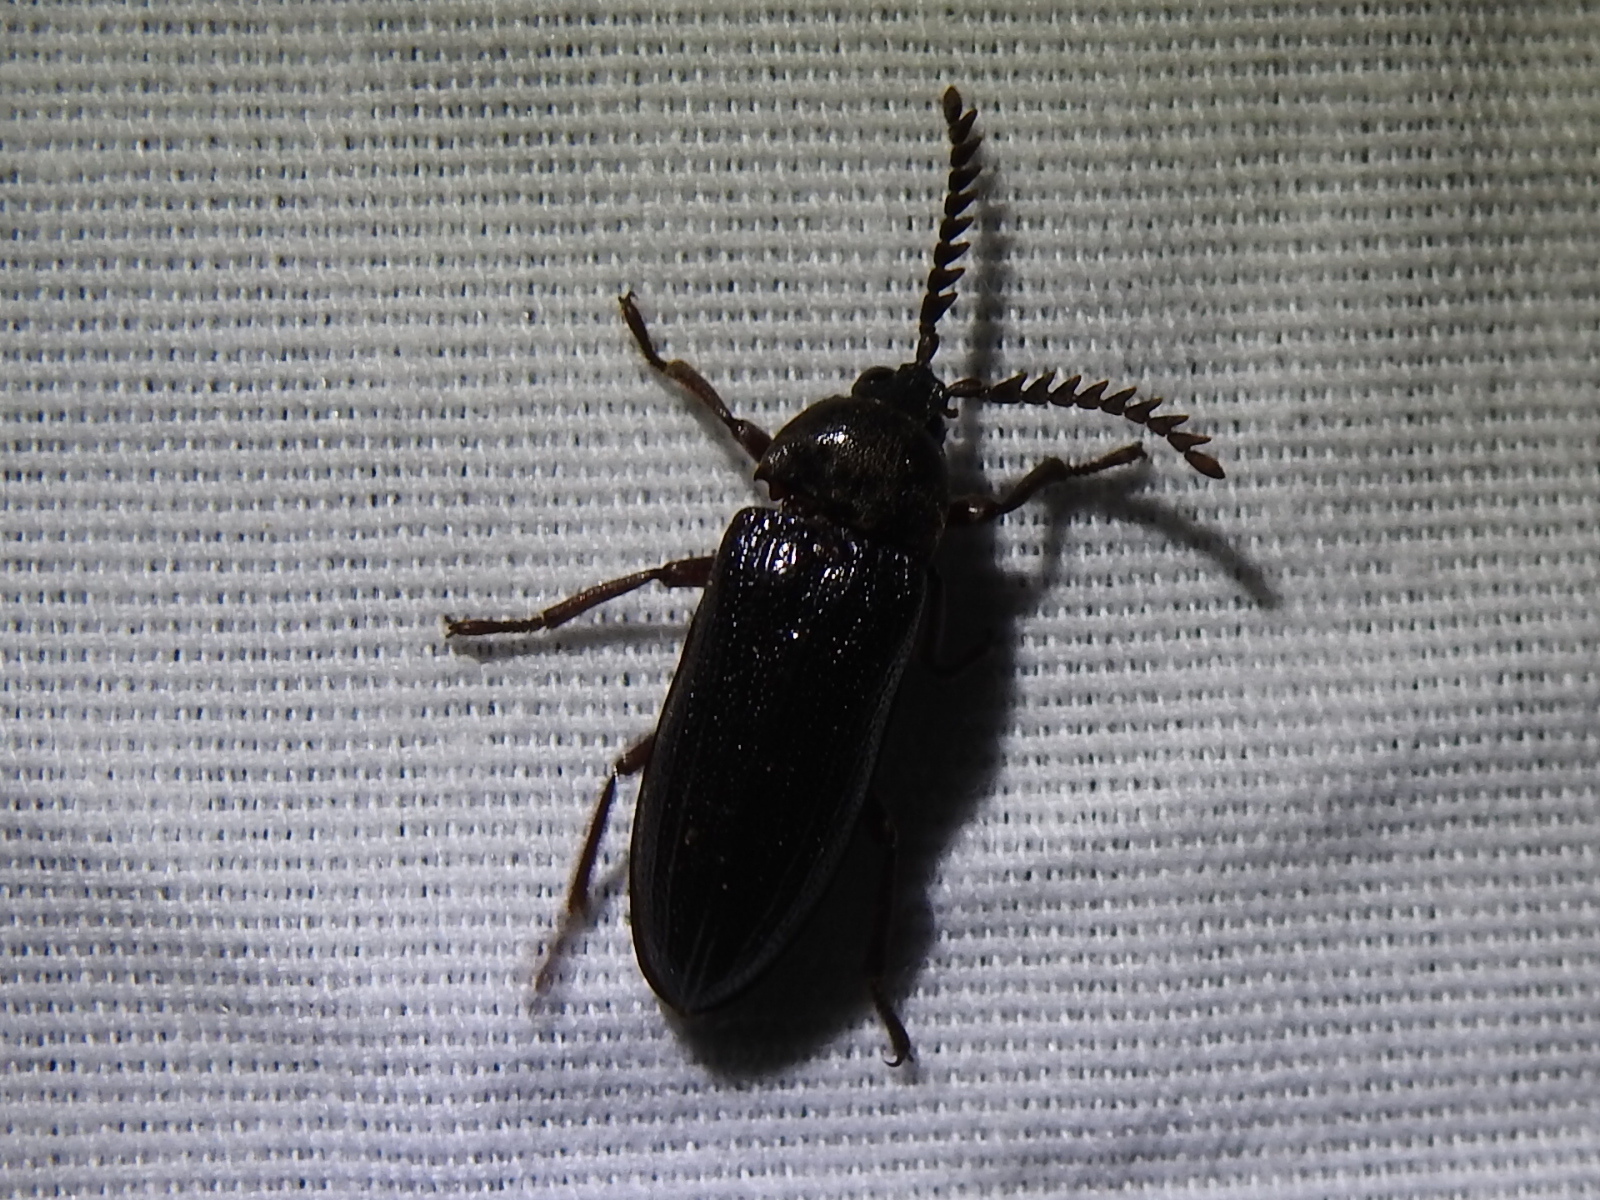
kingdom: Animalia
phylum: Arthropoda
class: Insecta
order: Coleoptera
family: Callirhipidae
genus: Zenoa
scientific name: Zenoa picea
